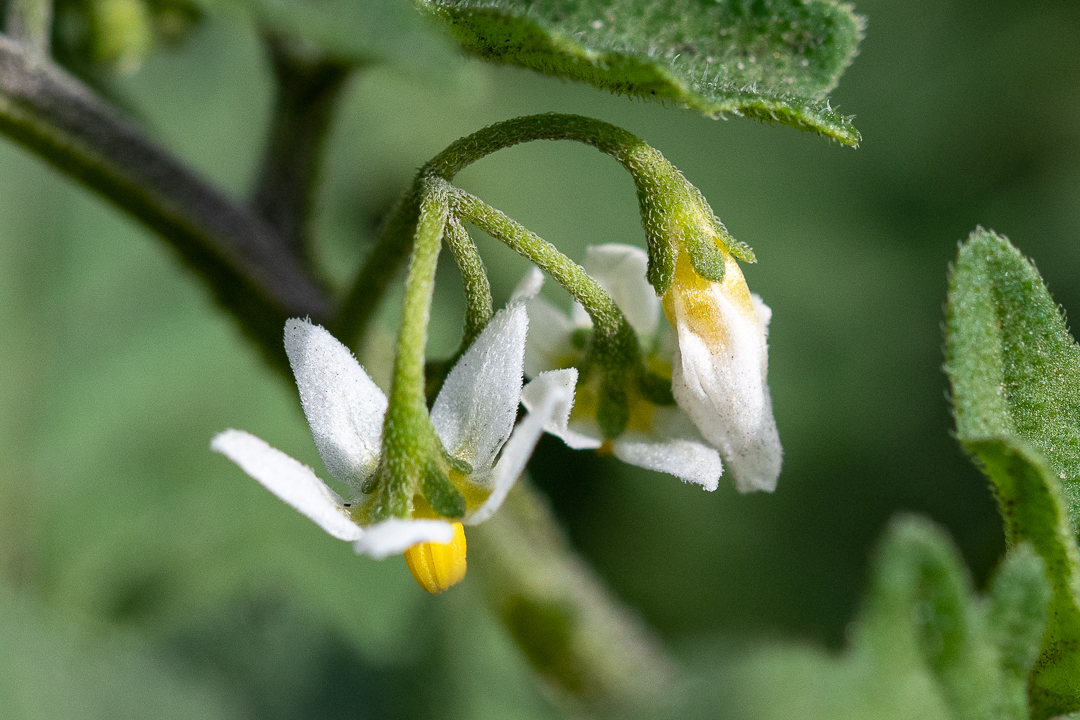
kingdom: Plantae
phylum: Tracheophyta
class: Magnoliopsida
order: Solanales
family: Solanaceae
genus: Solanum
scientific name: Solanum retroflexum
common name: Wonderberry
